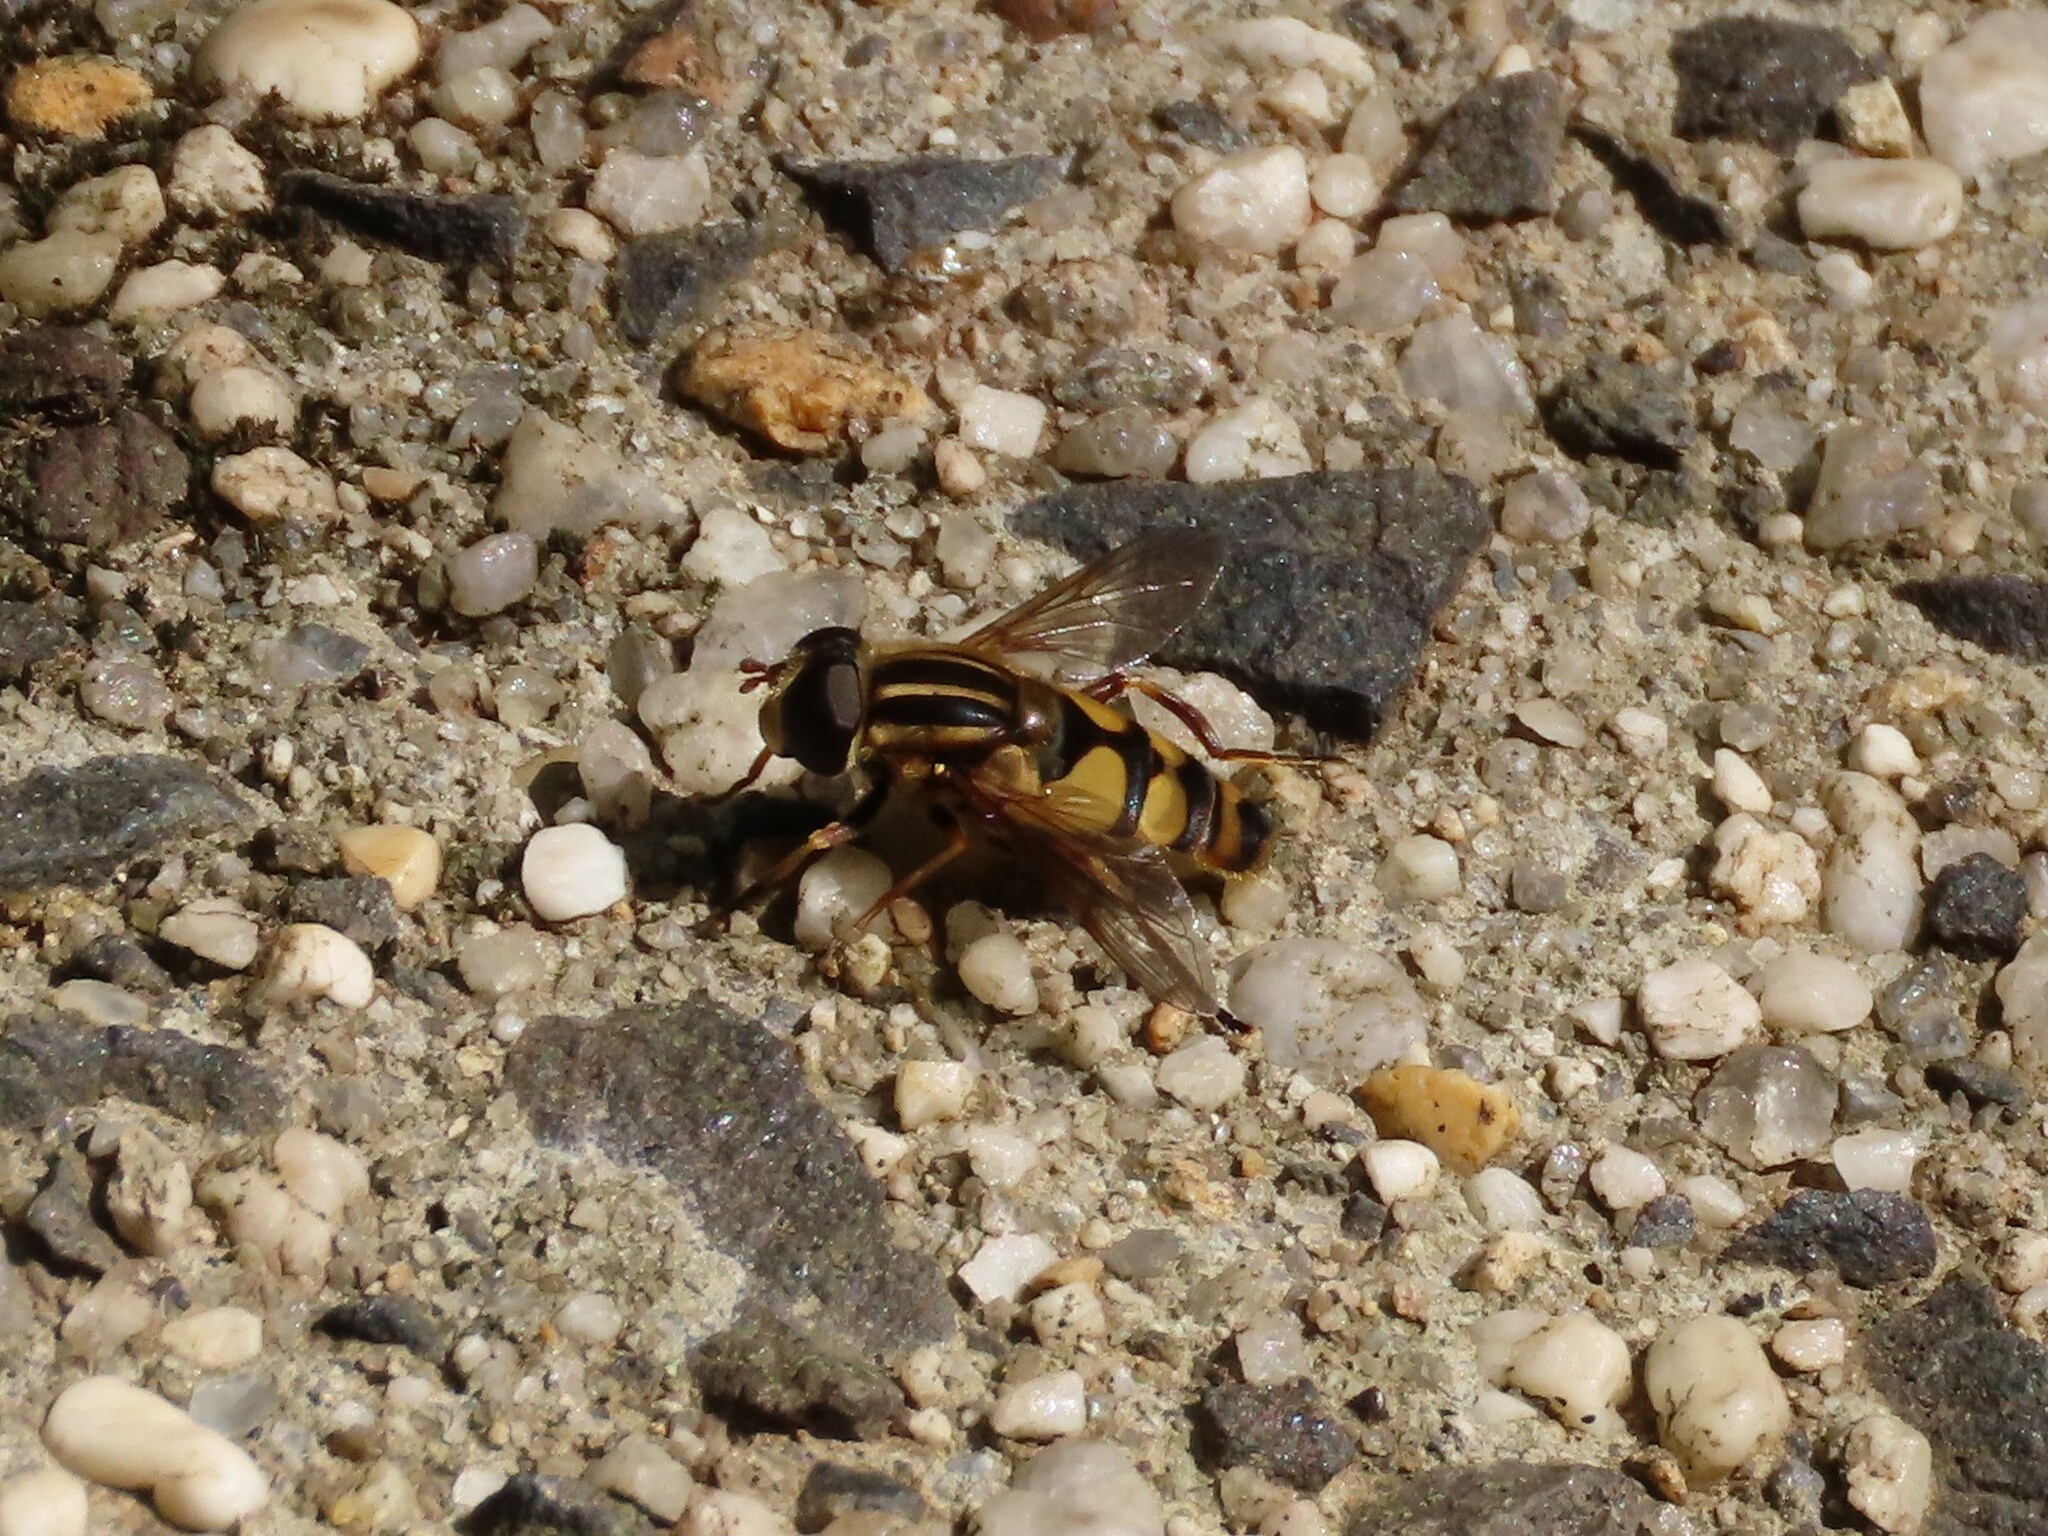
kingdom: Animalia
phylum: Arthropoda
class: Insecta
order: Diptera
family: Syrphidae
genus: Helophilus
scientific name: Helophilus fasciatus
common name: Narrow-headed marsh fly
